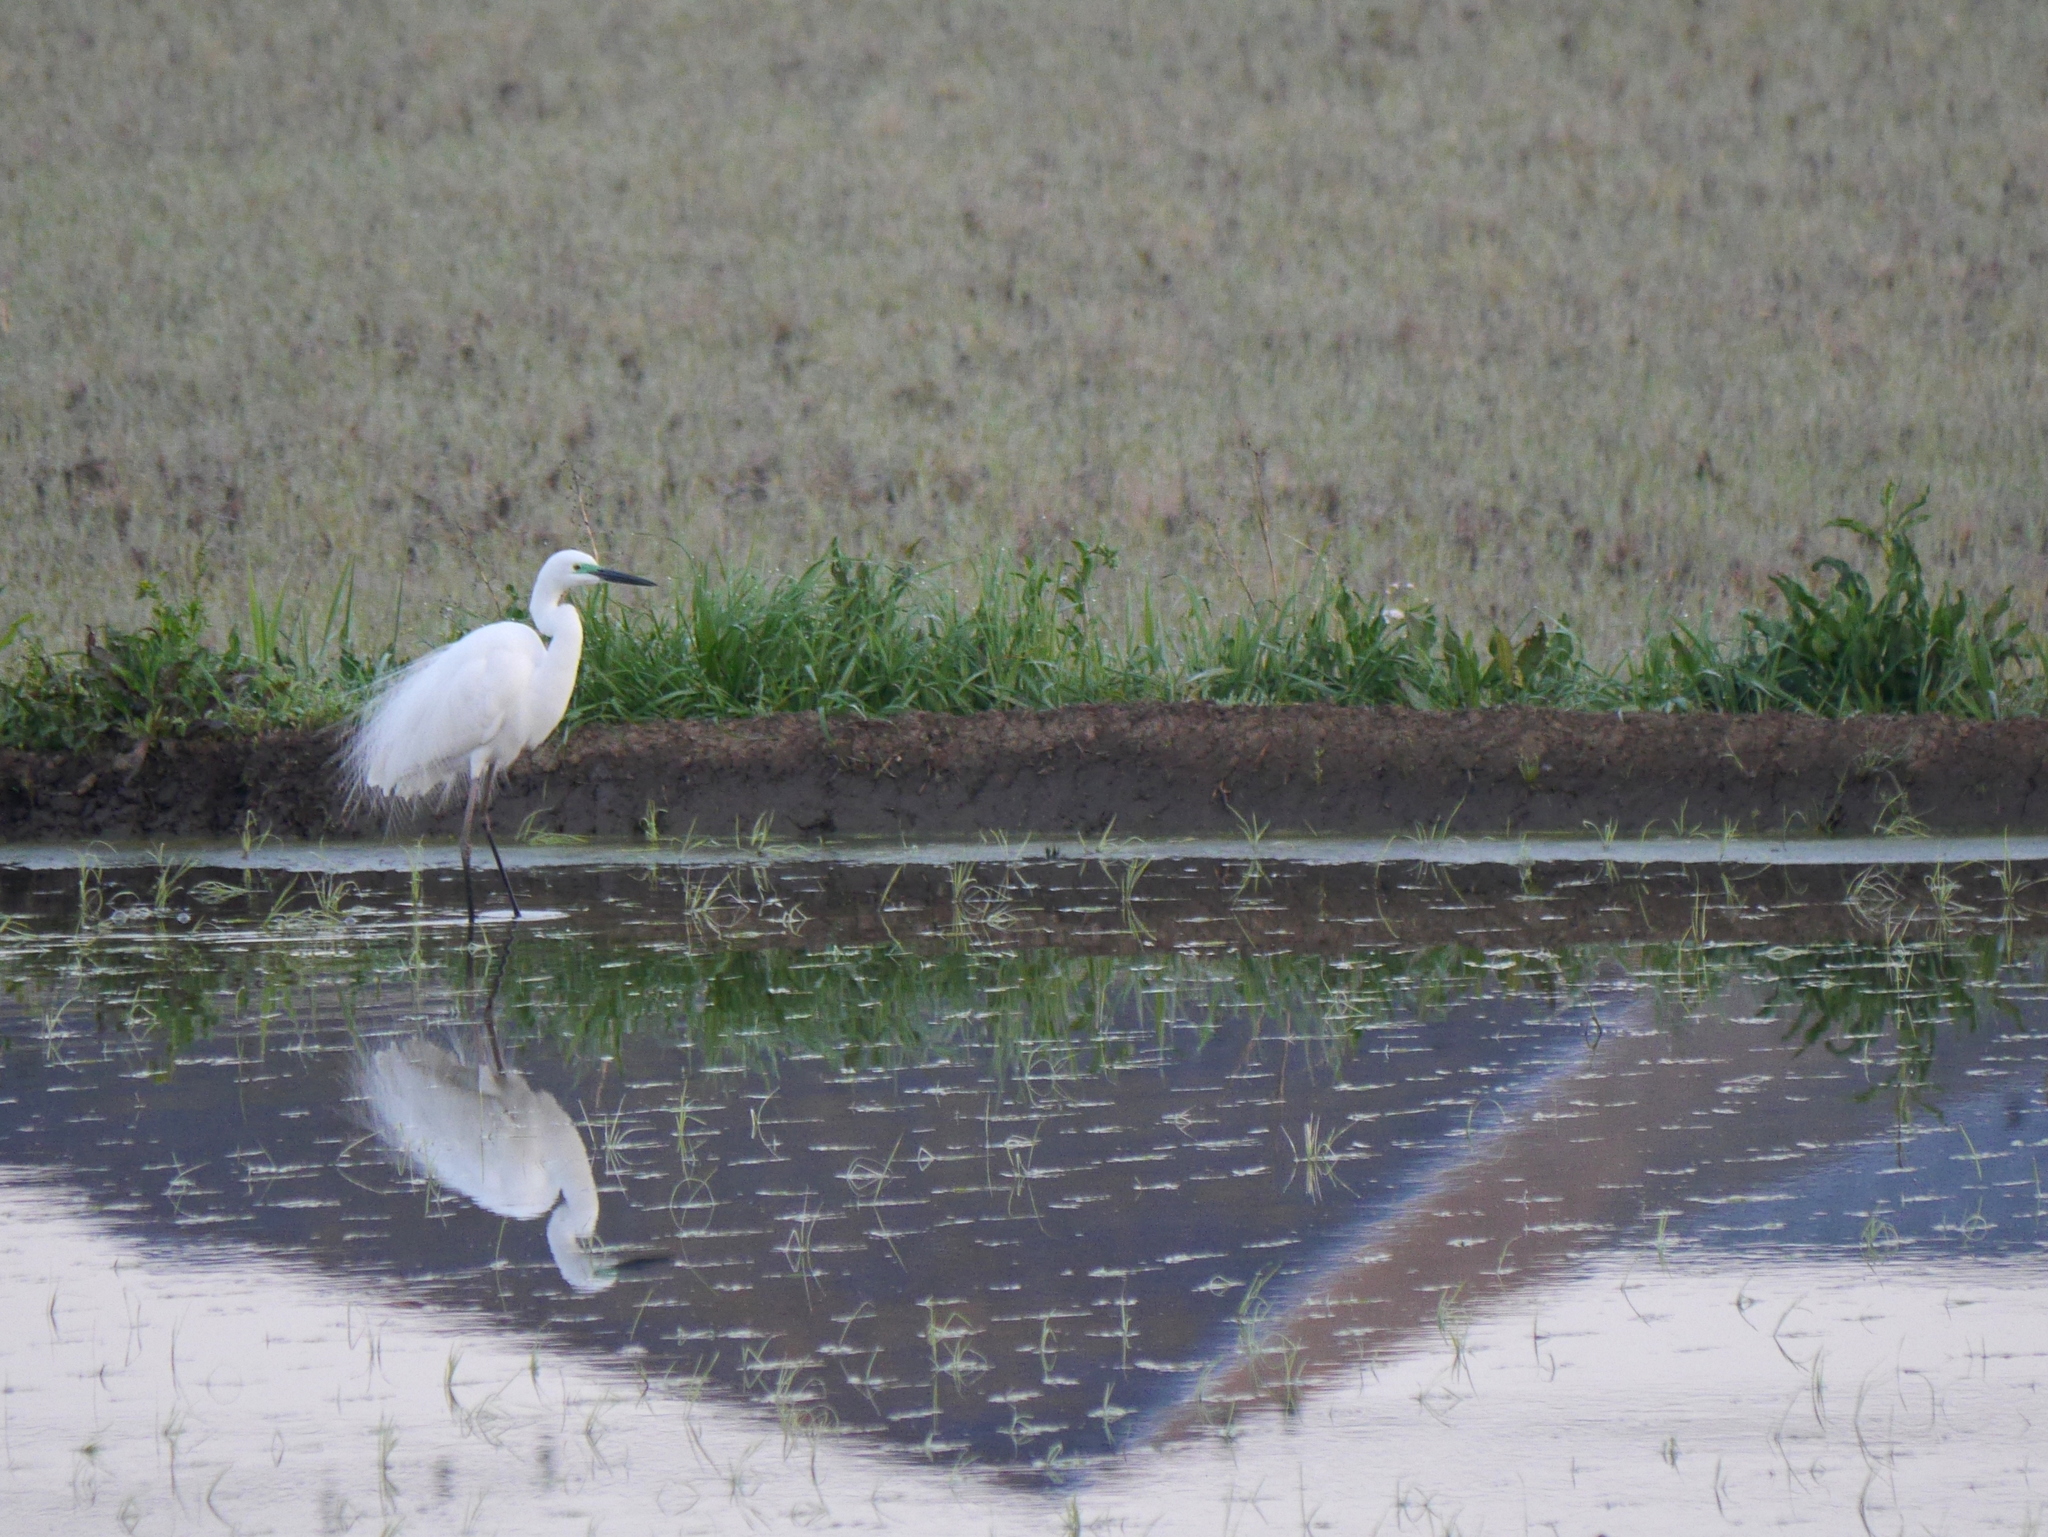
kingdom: Animalia
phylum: Chordata
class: Aves
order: Pelecaniformes
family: Ardeidae
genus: Ardea
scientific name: Ardea alba
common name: Great egret
